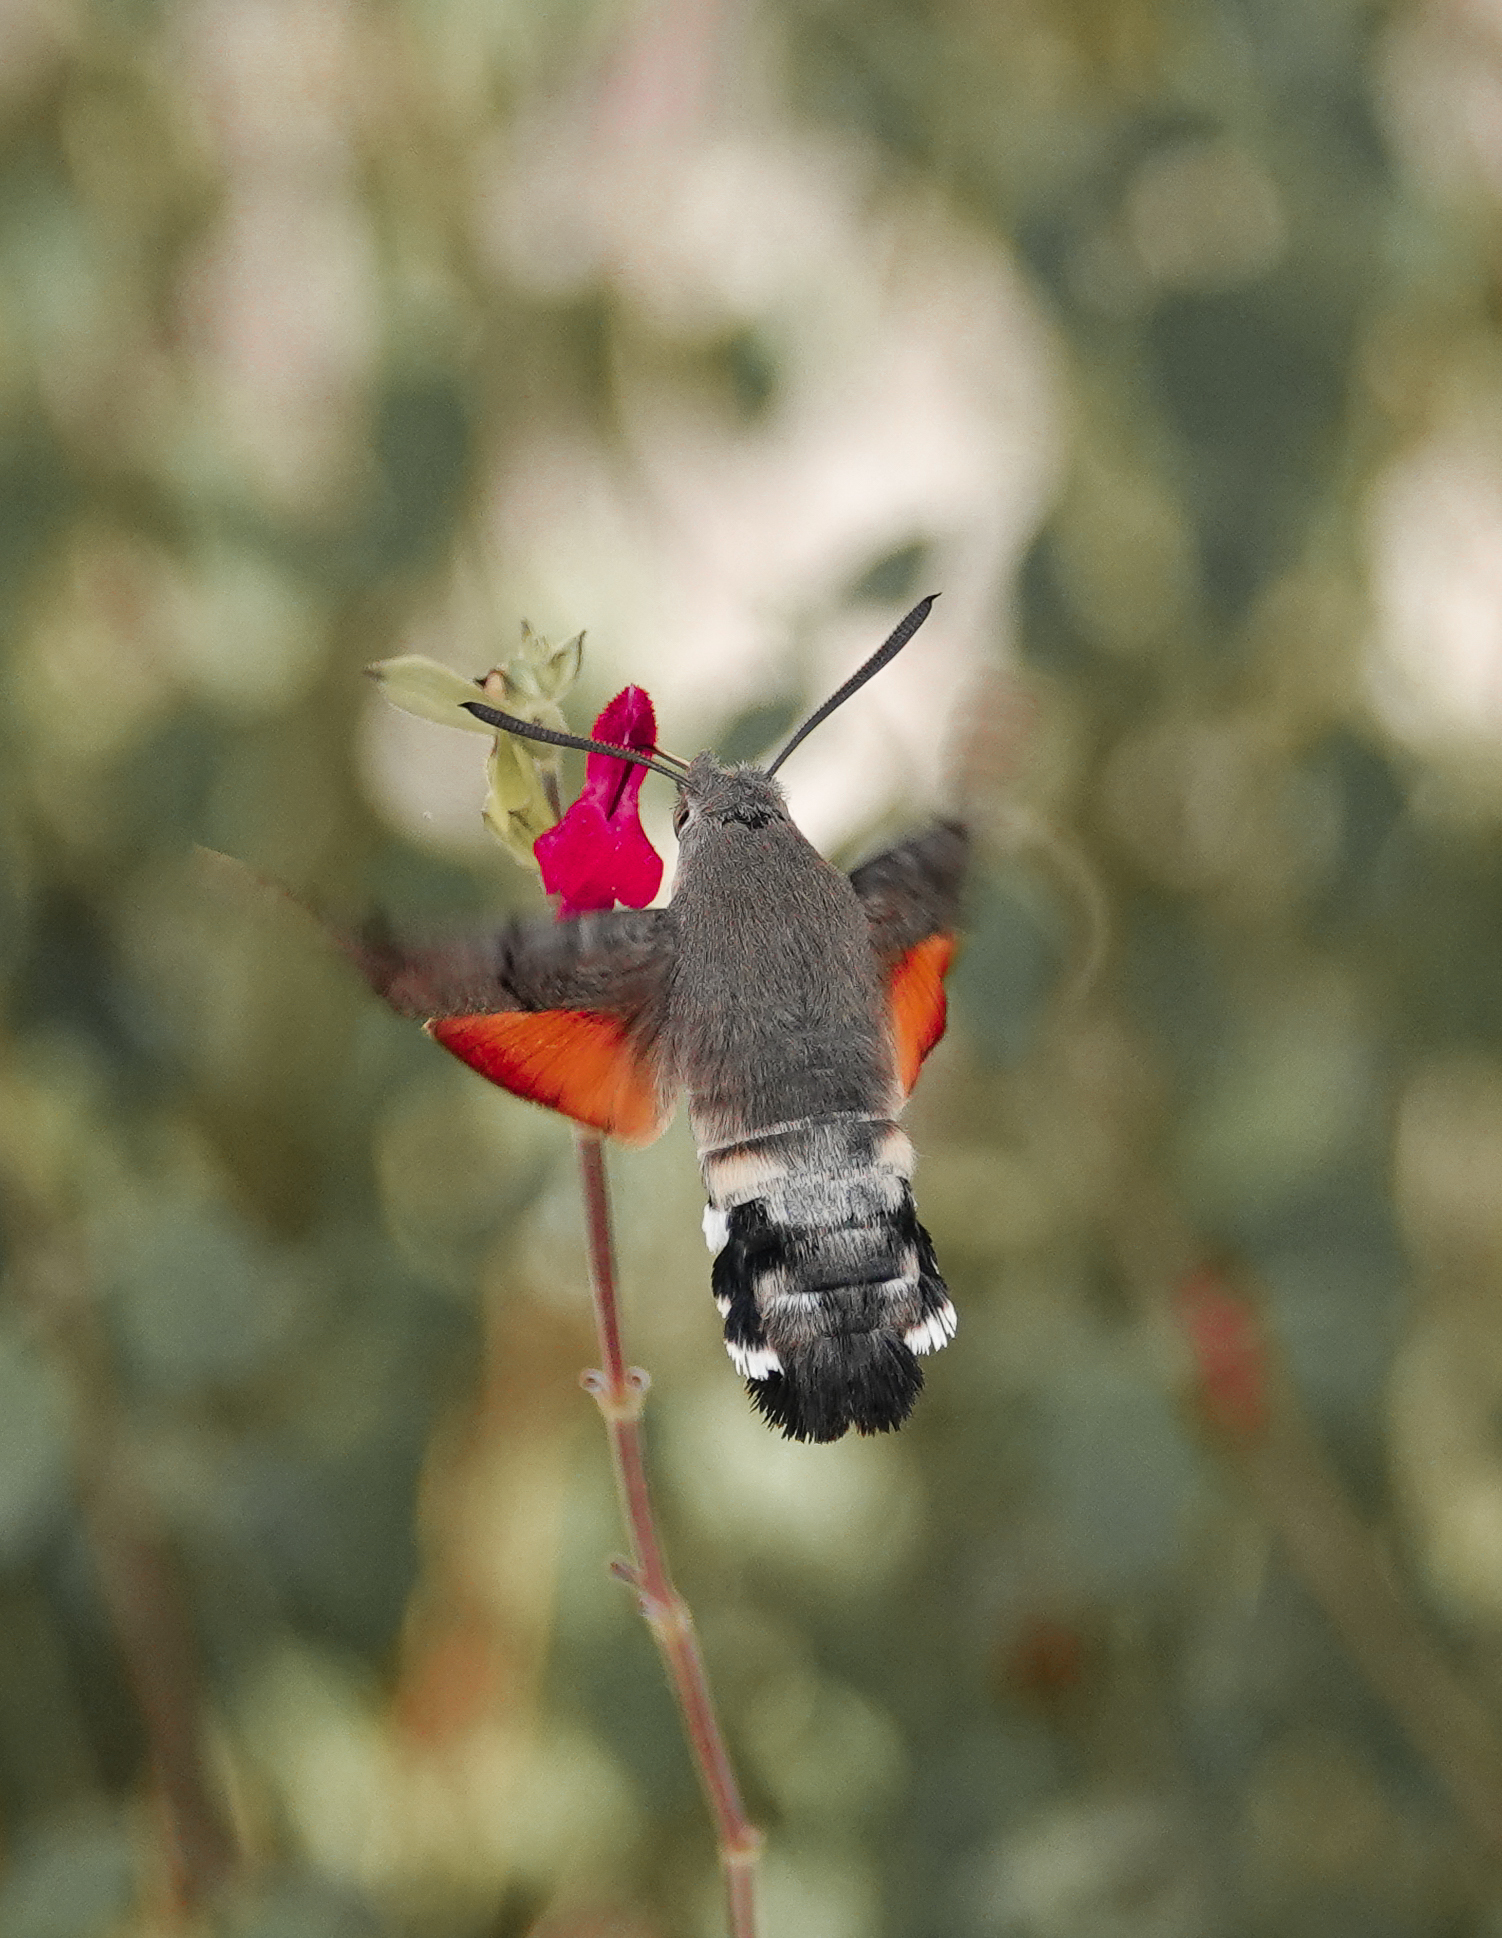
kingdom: Animalia
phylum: Arthropoda
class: Insecta
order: Lepidoptera
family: Sphingidae
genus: Macroglossum
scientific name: Macroglossum stellatarum
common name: Humming-bird hawk-moth
